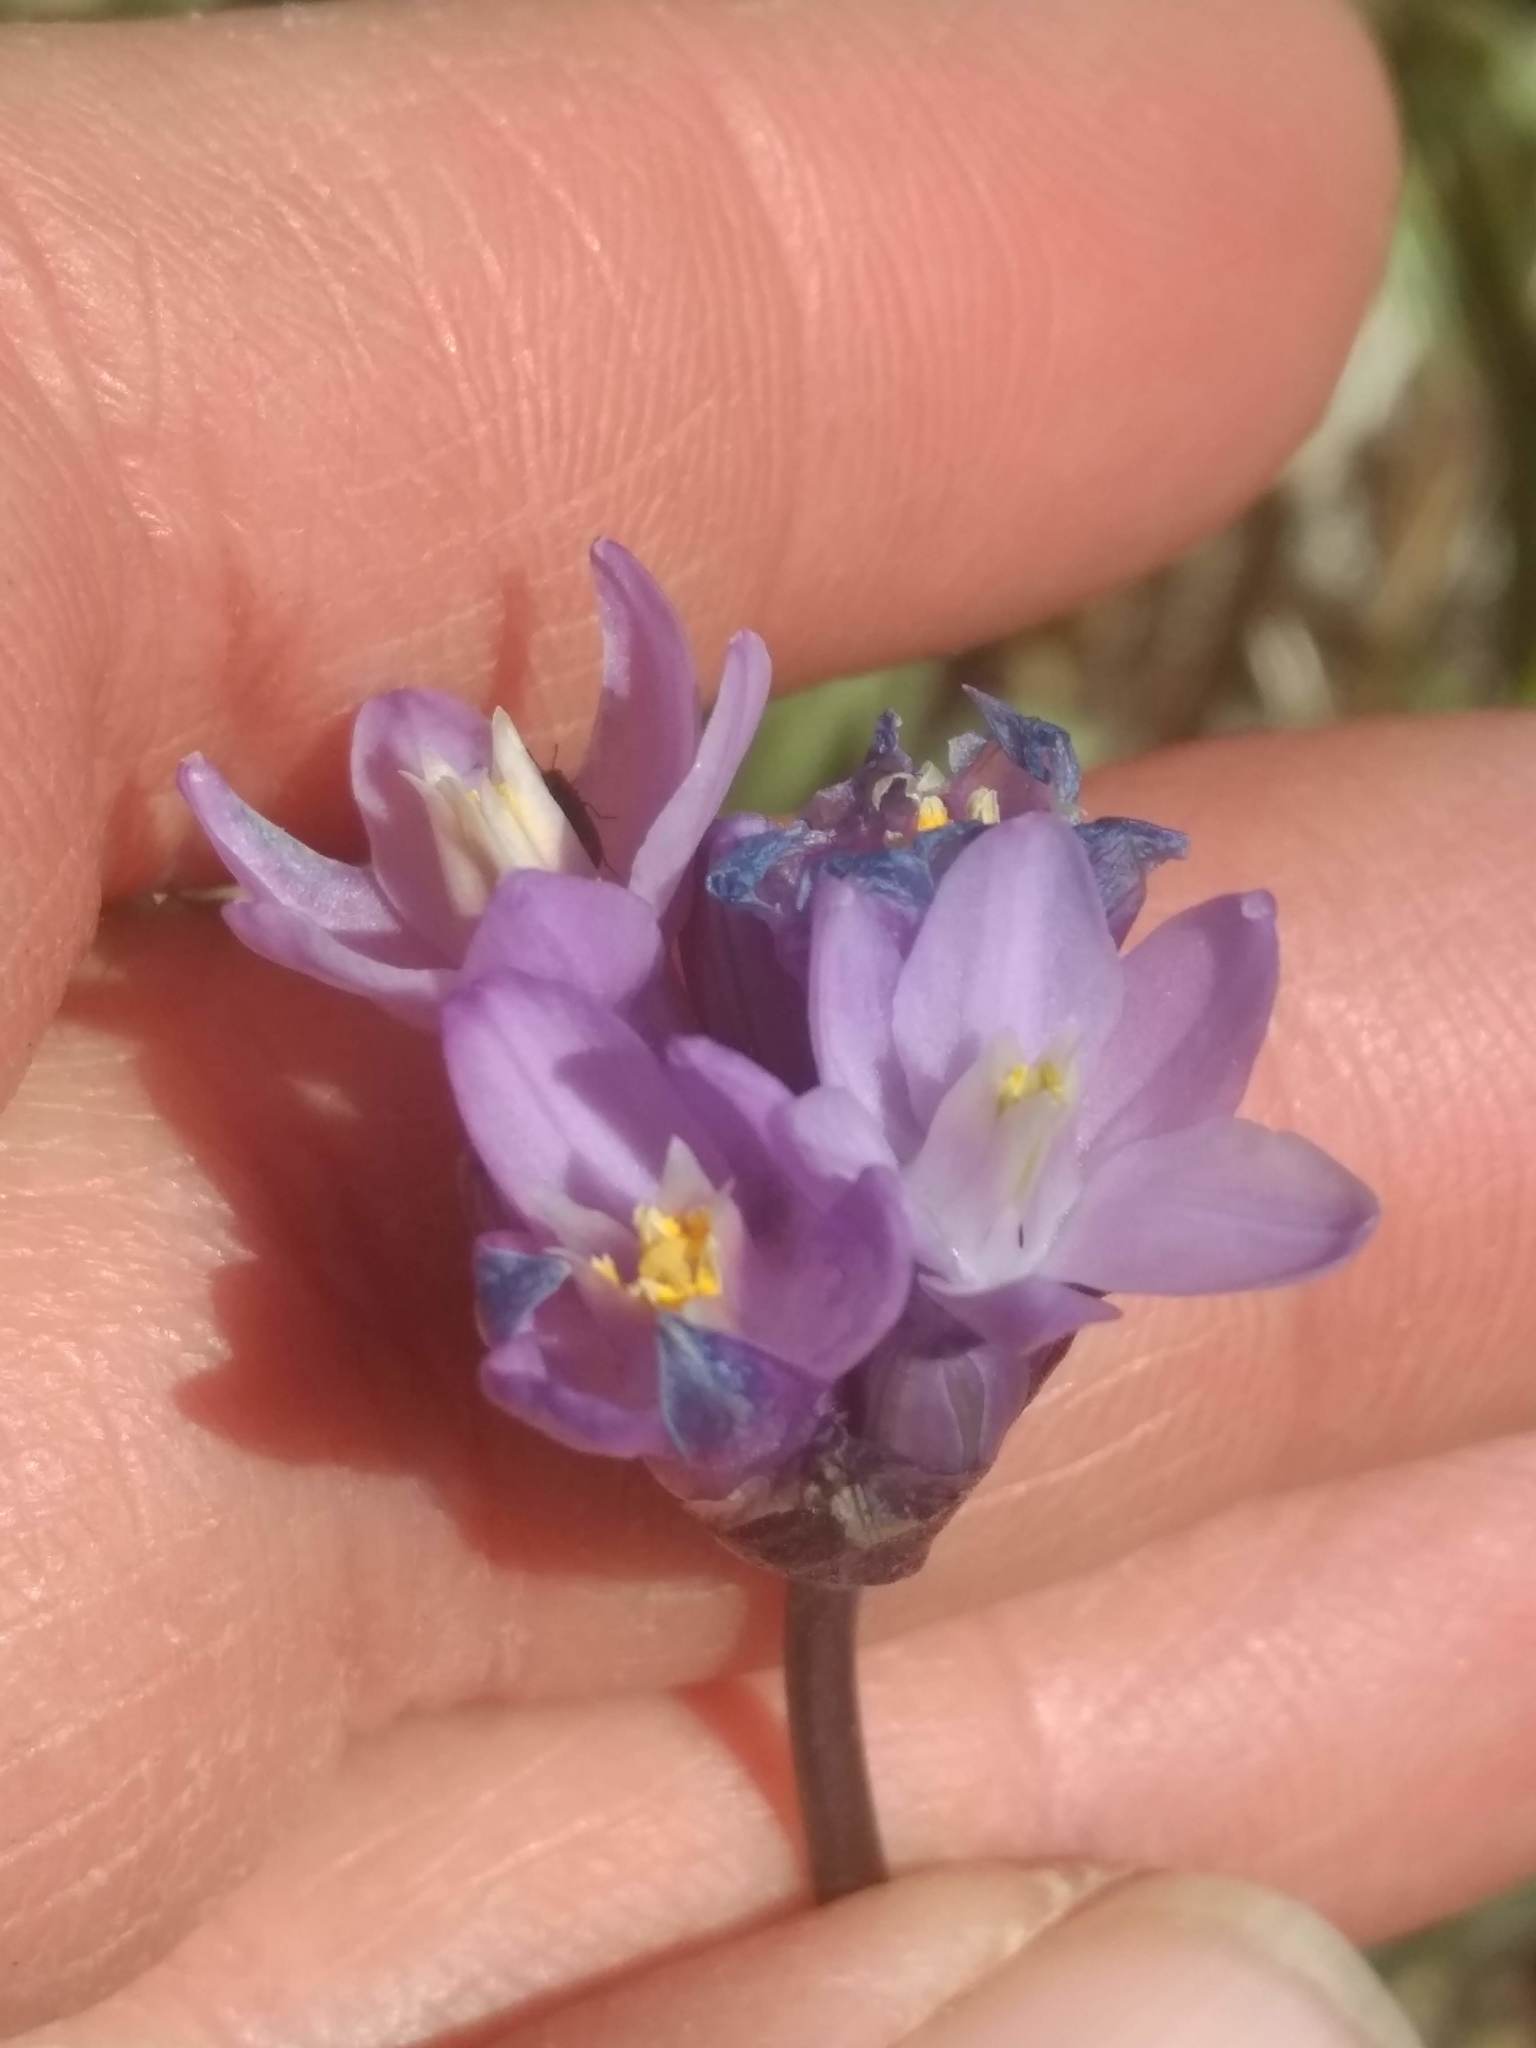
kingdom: Plantae
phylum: Tracheophyta
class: Liliopsida
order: Asparagales
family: Asparagaceae
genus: Dipterostemon
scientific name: Dipterostemon capitatus
